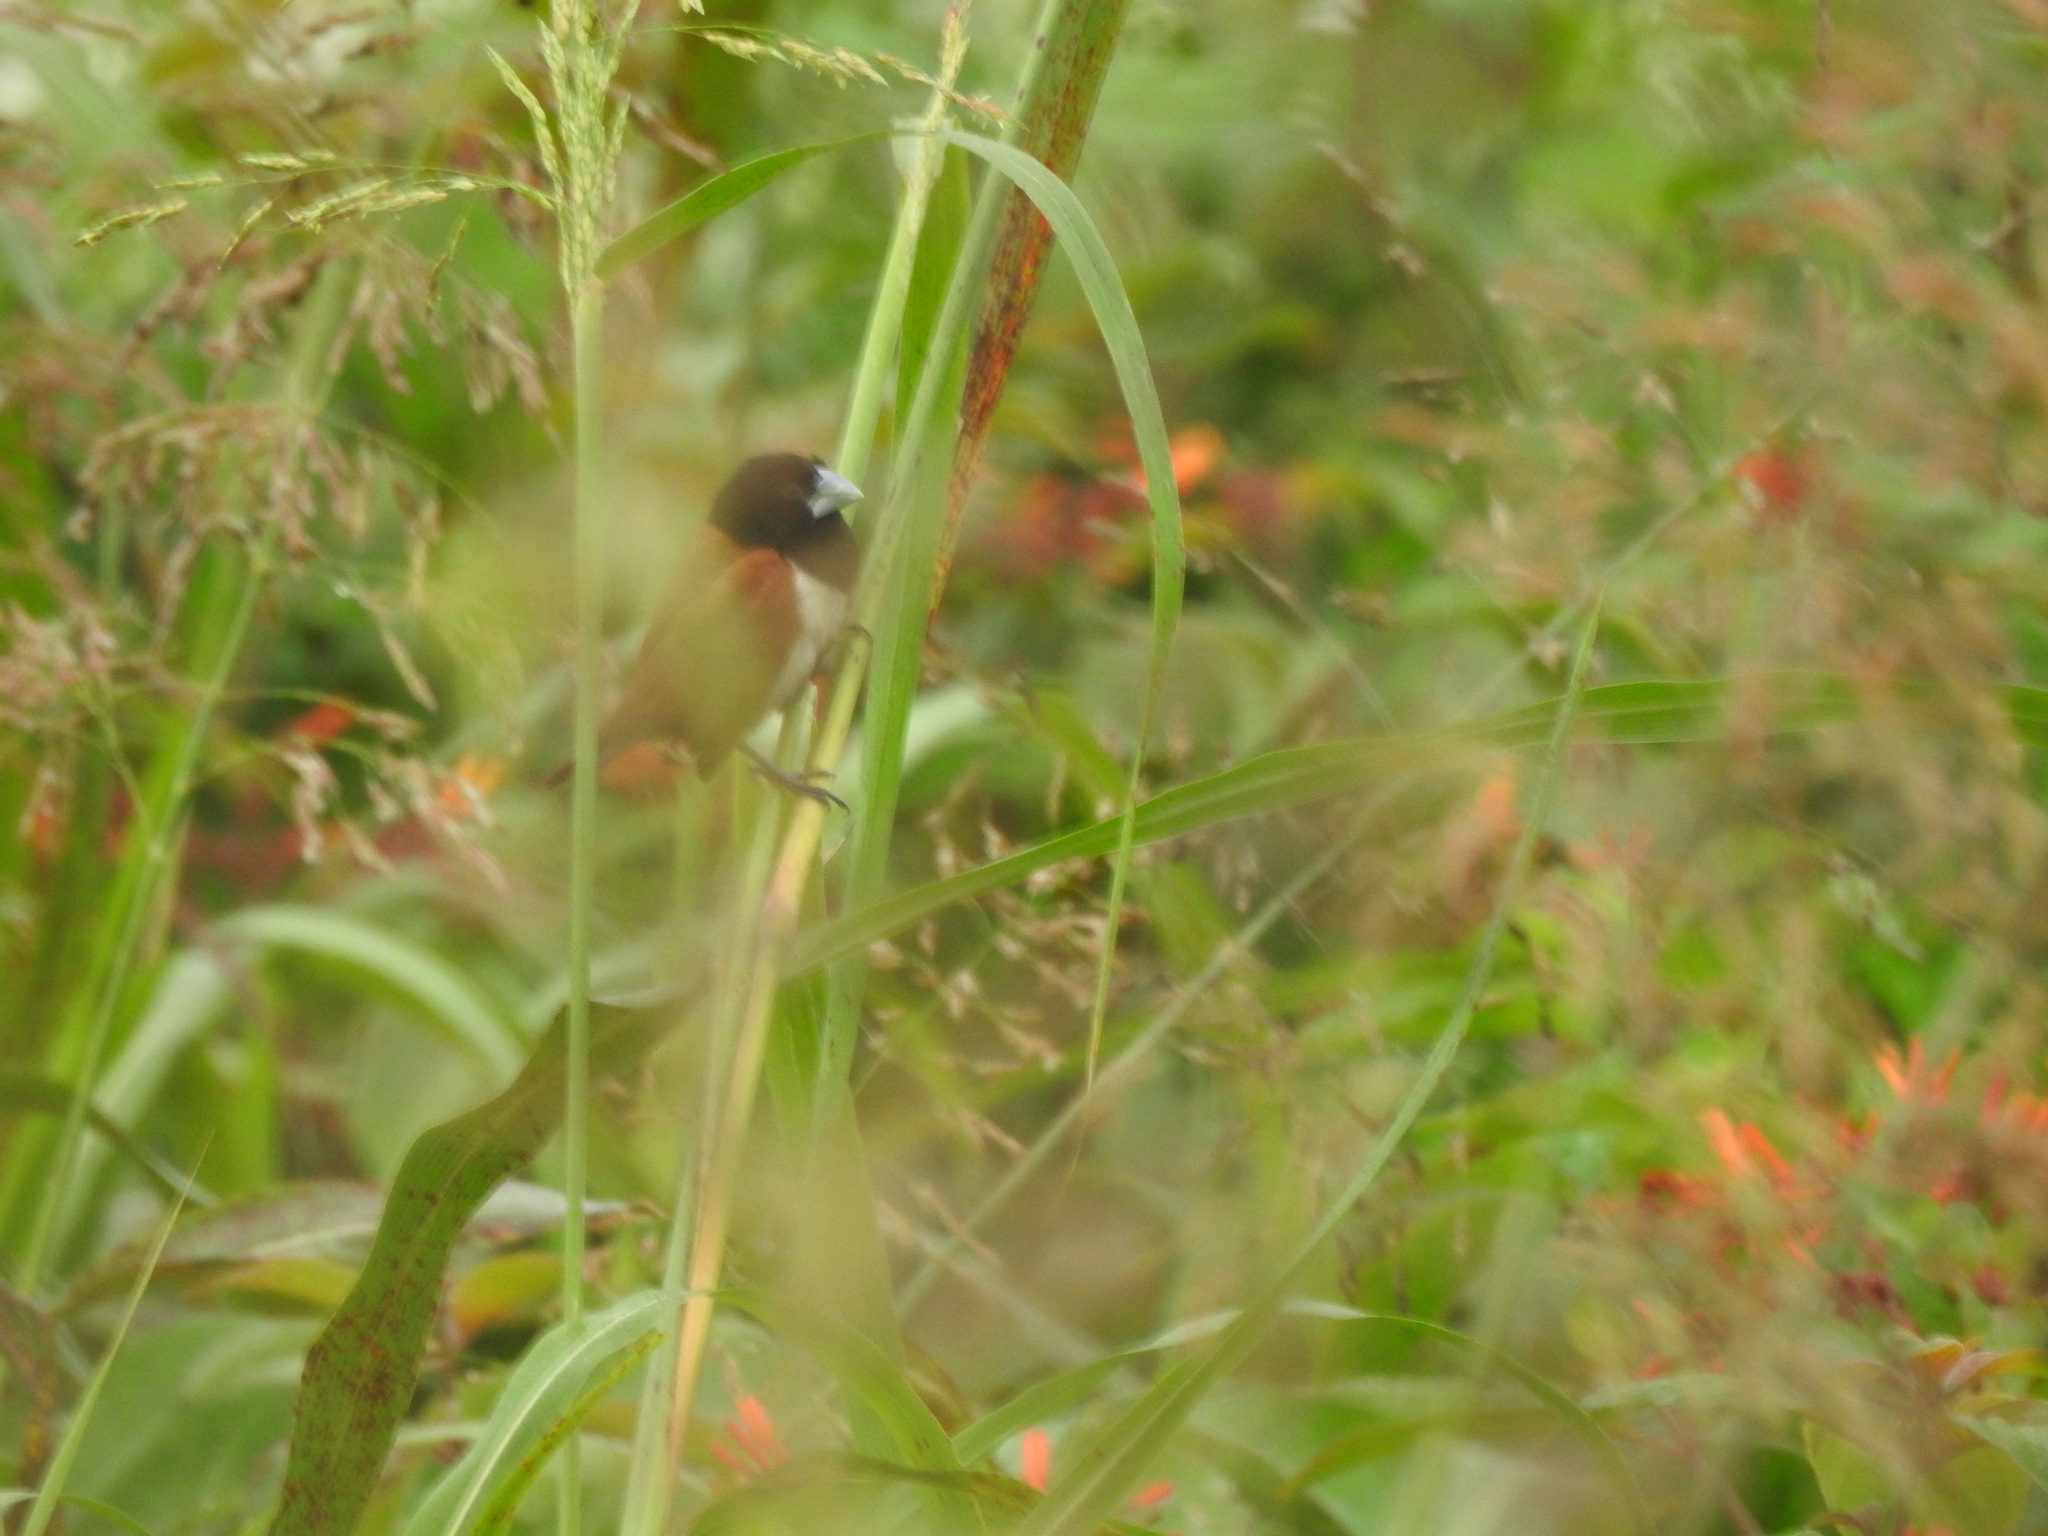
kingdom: Animalia
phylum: Chordata
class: Aves
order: Passeriformes
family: Estrildidae
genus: Lonchura
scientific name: Lonchura malacca
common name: Tricolored munia
